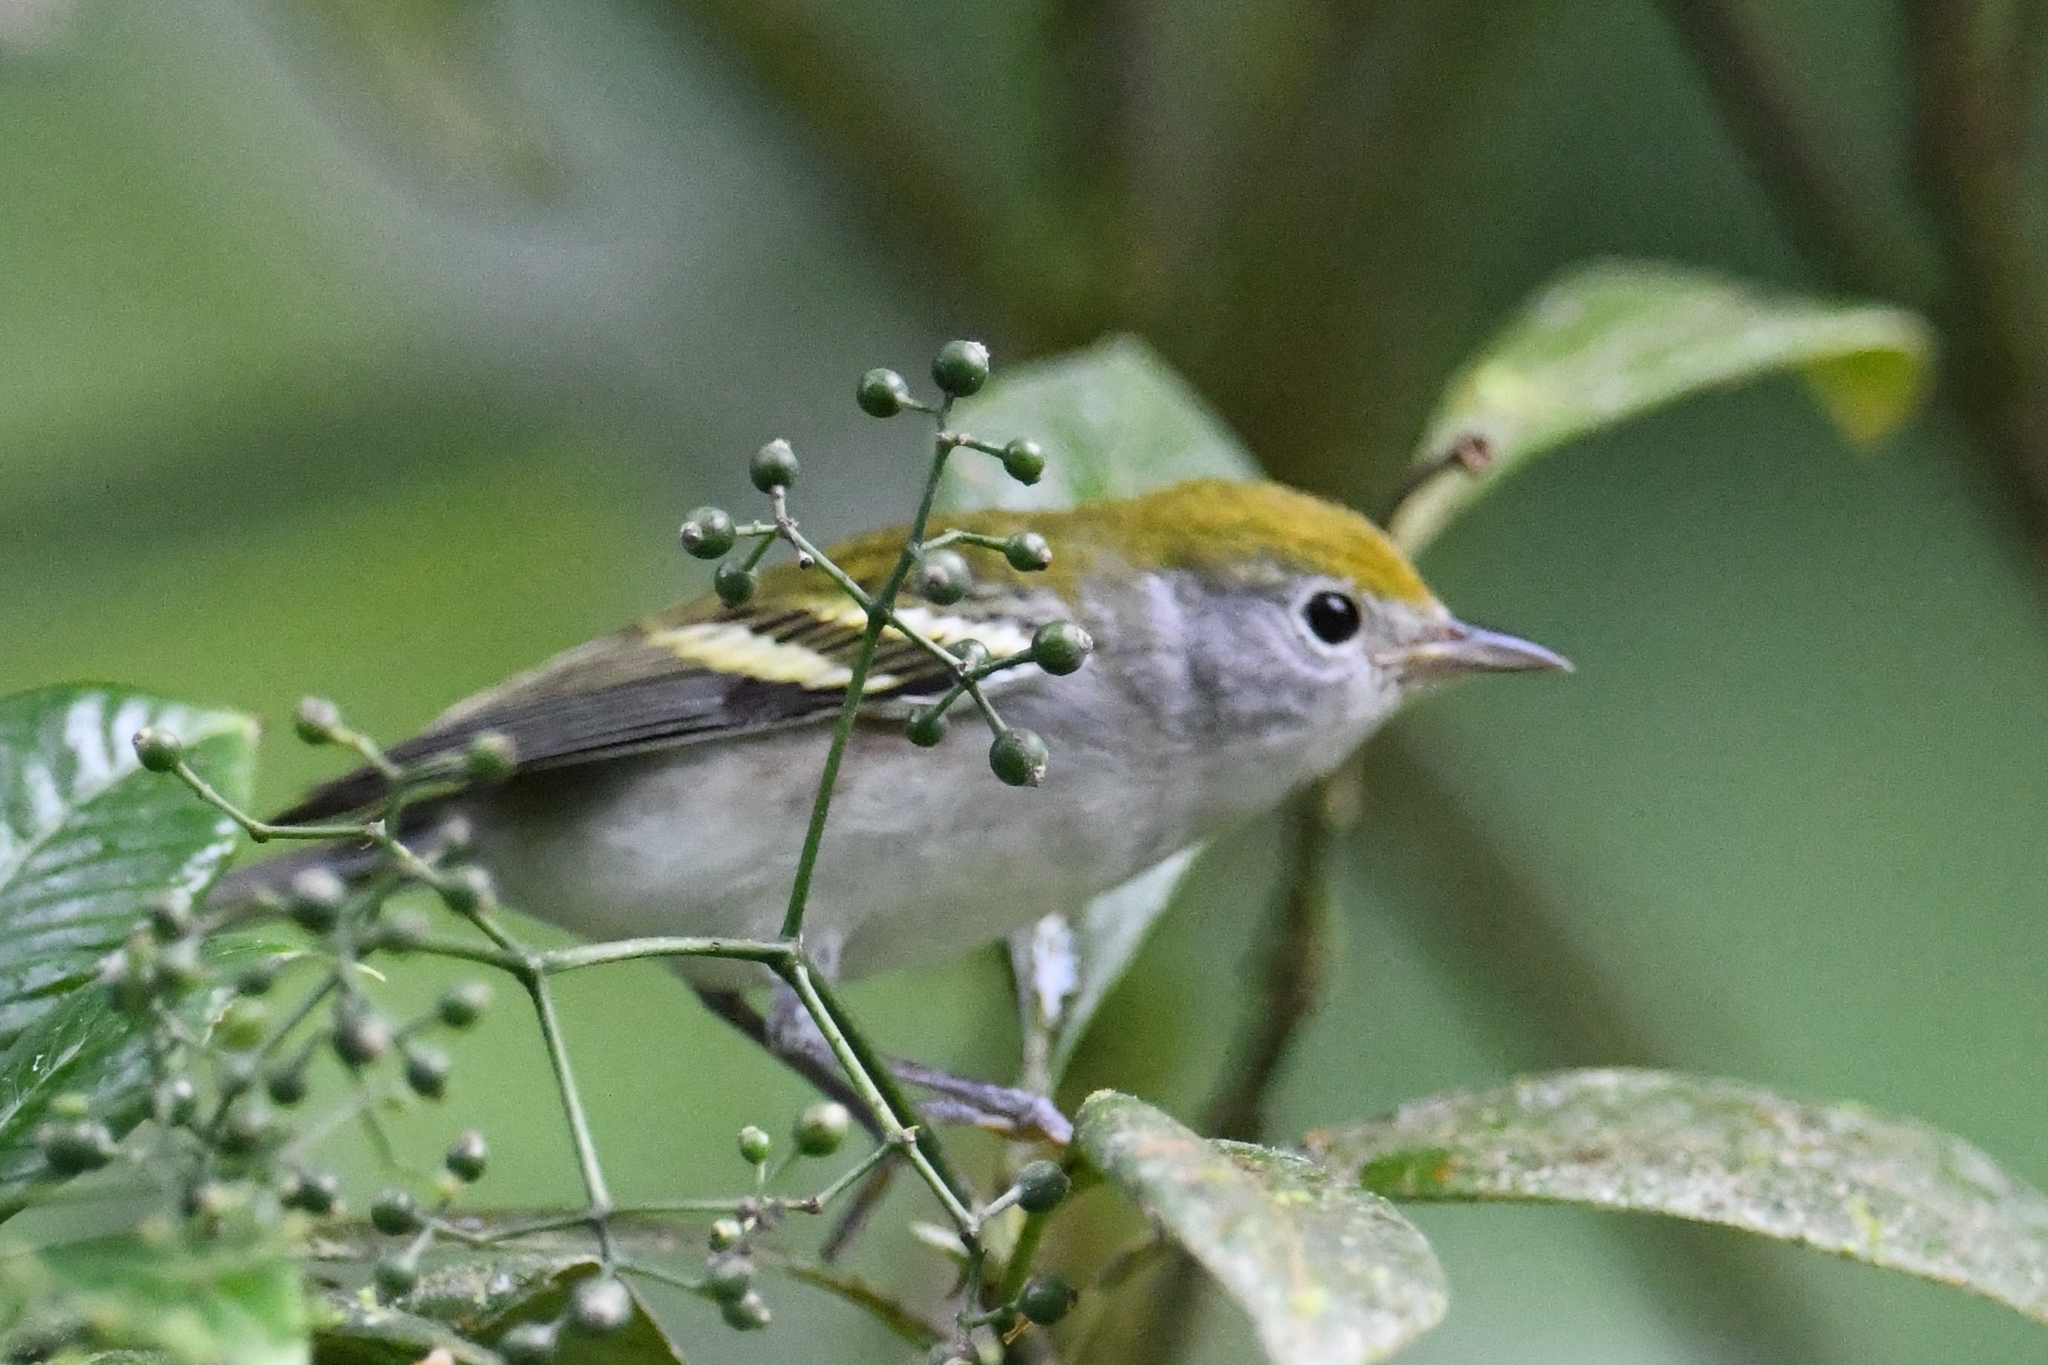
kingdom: Animalia
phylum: Chordata
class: Aves
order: Passeriformes
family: Parulidae
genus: Setophaga
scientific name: Setophaga pensylvanica
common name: Chestnut-sided warbler
